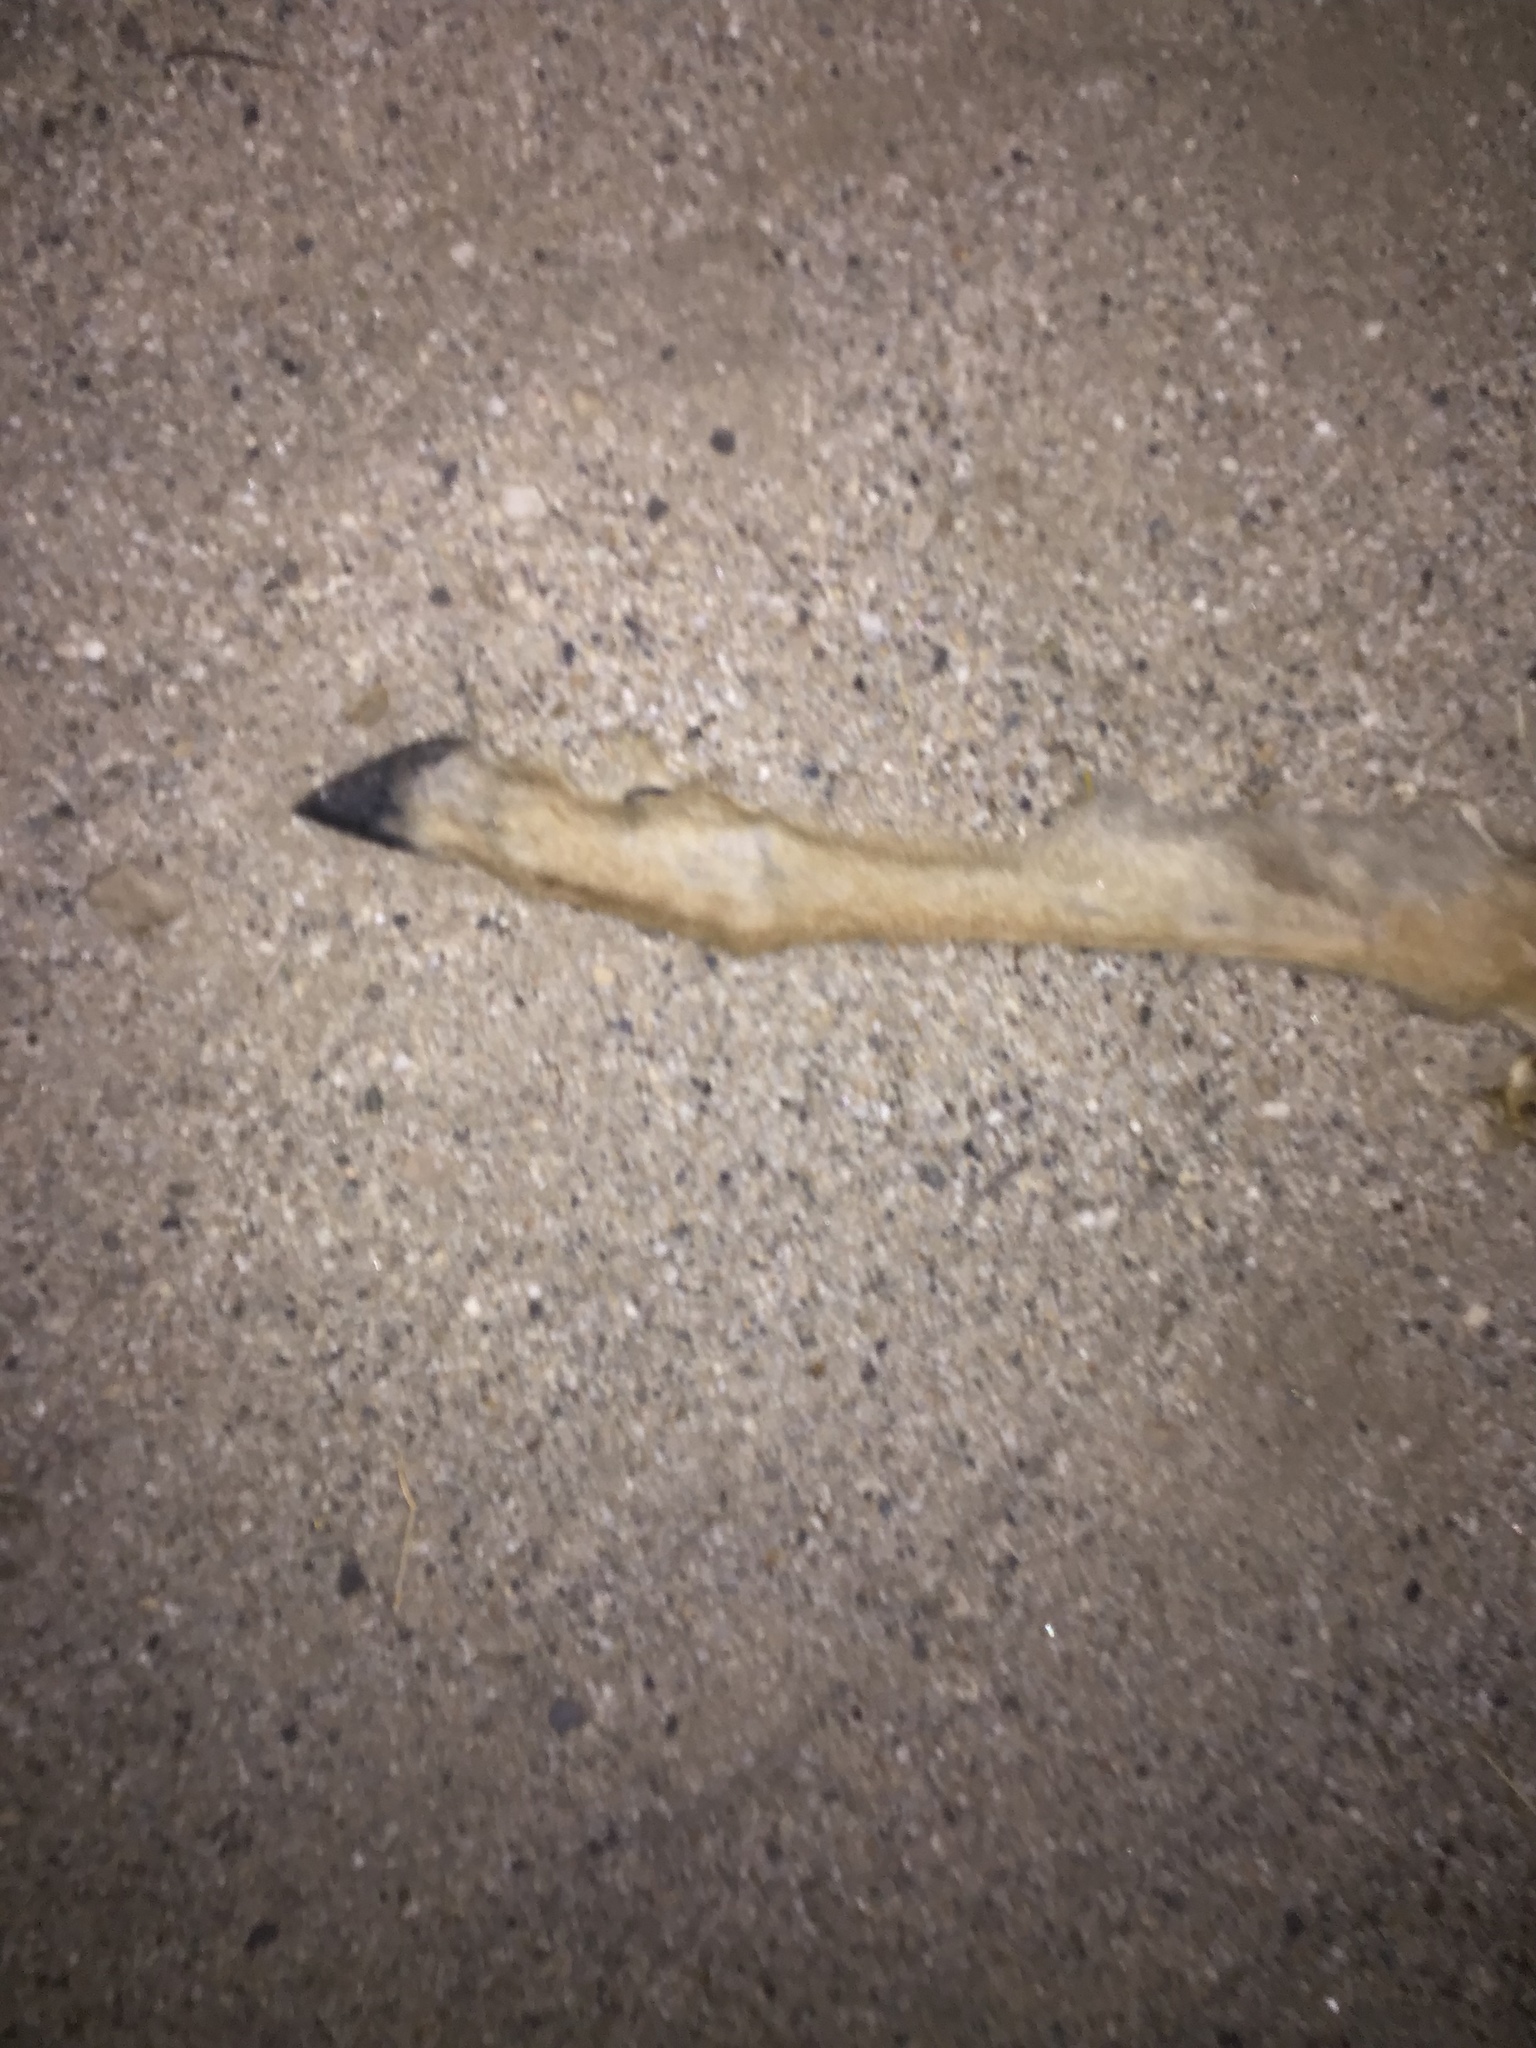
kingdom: Animalia
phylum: Chordata
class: Mammalia
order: Artiodactyla
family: Cervidae
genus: Odocoileus
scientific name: Odocoileus hemionus
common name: Mule deer
